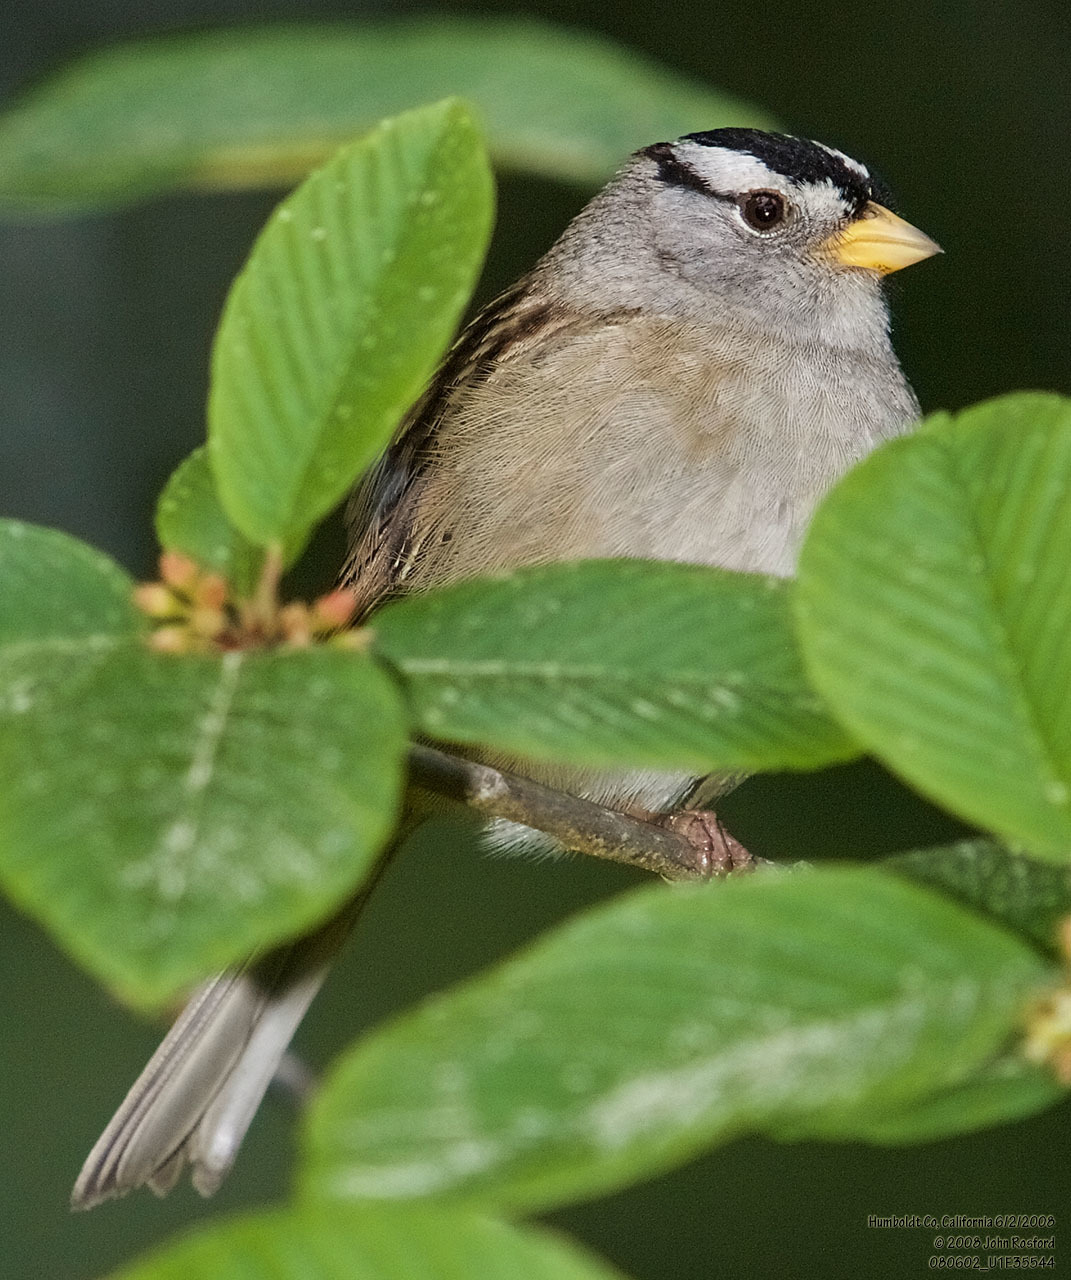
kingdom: Animalia
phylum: Chordata
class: Aves
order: Passeriformes
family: Passerellidae
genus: Zonotrichia
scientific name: Zonotrichia leucophrys
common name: White-crowned sparrow
